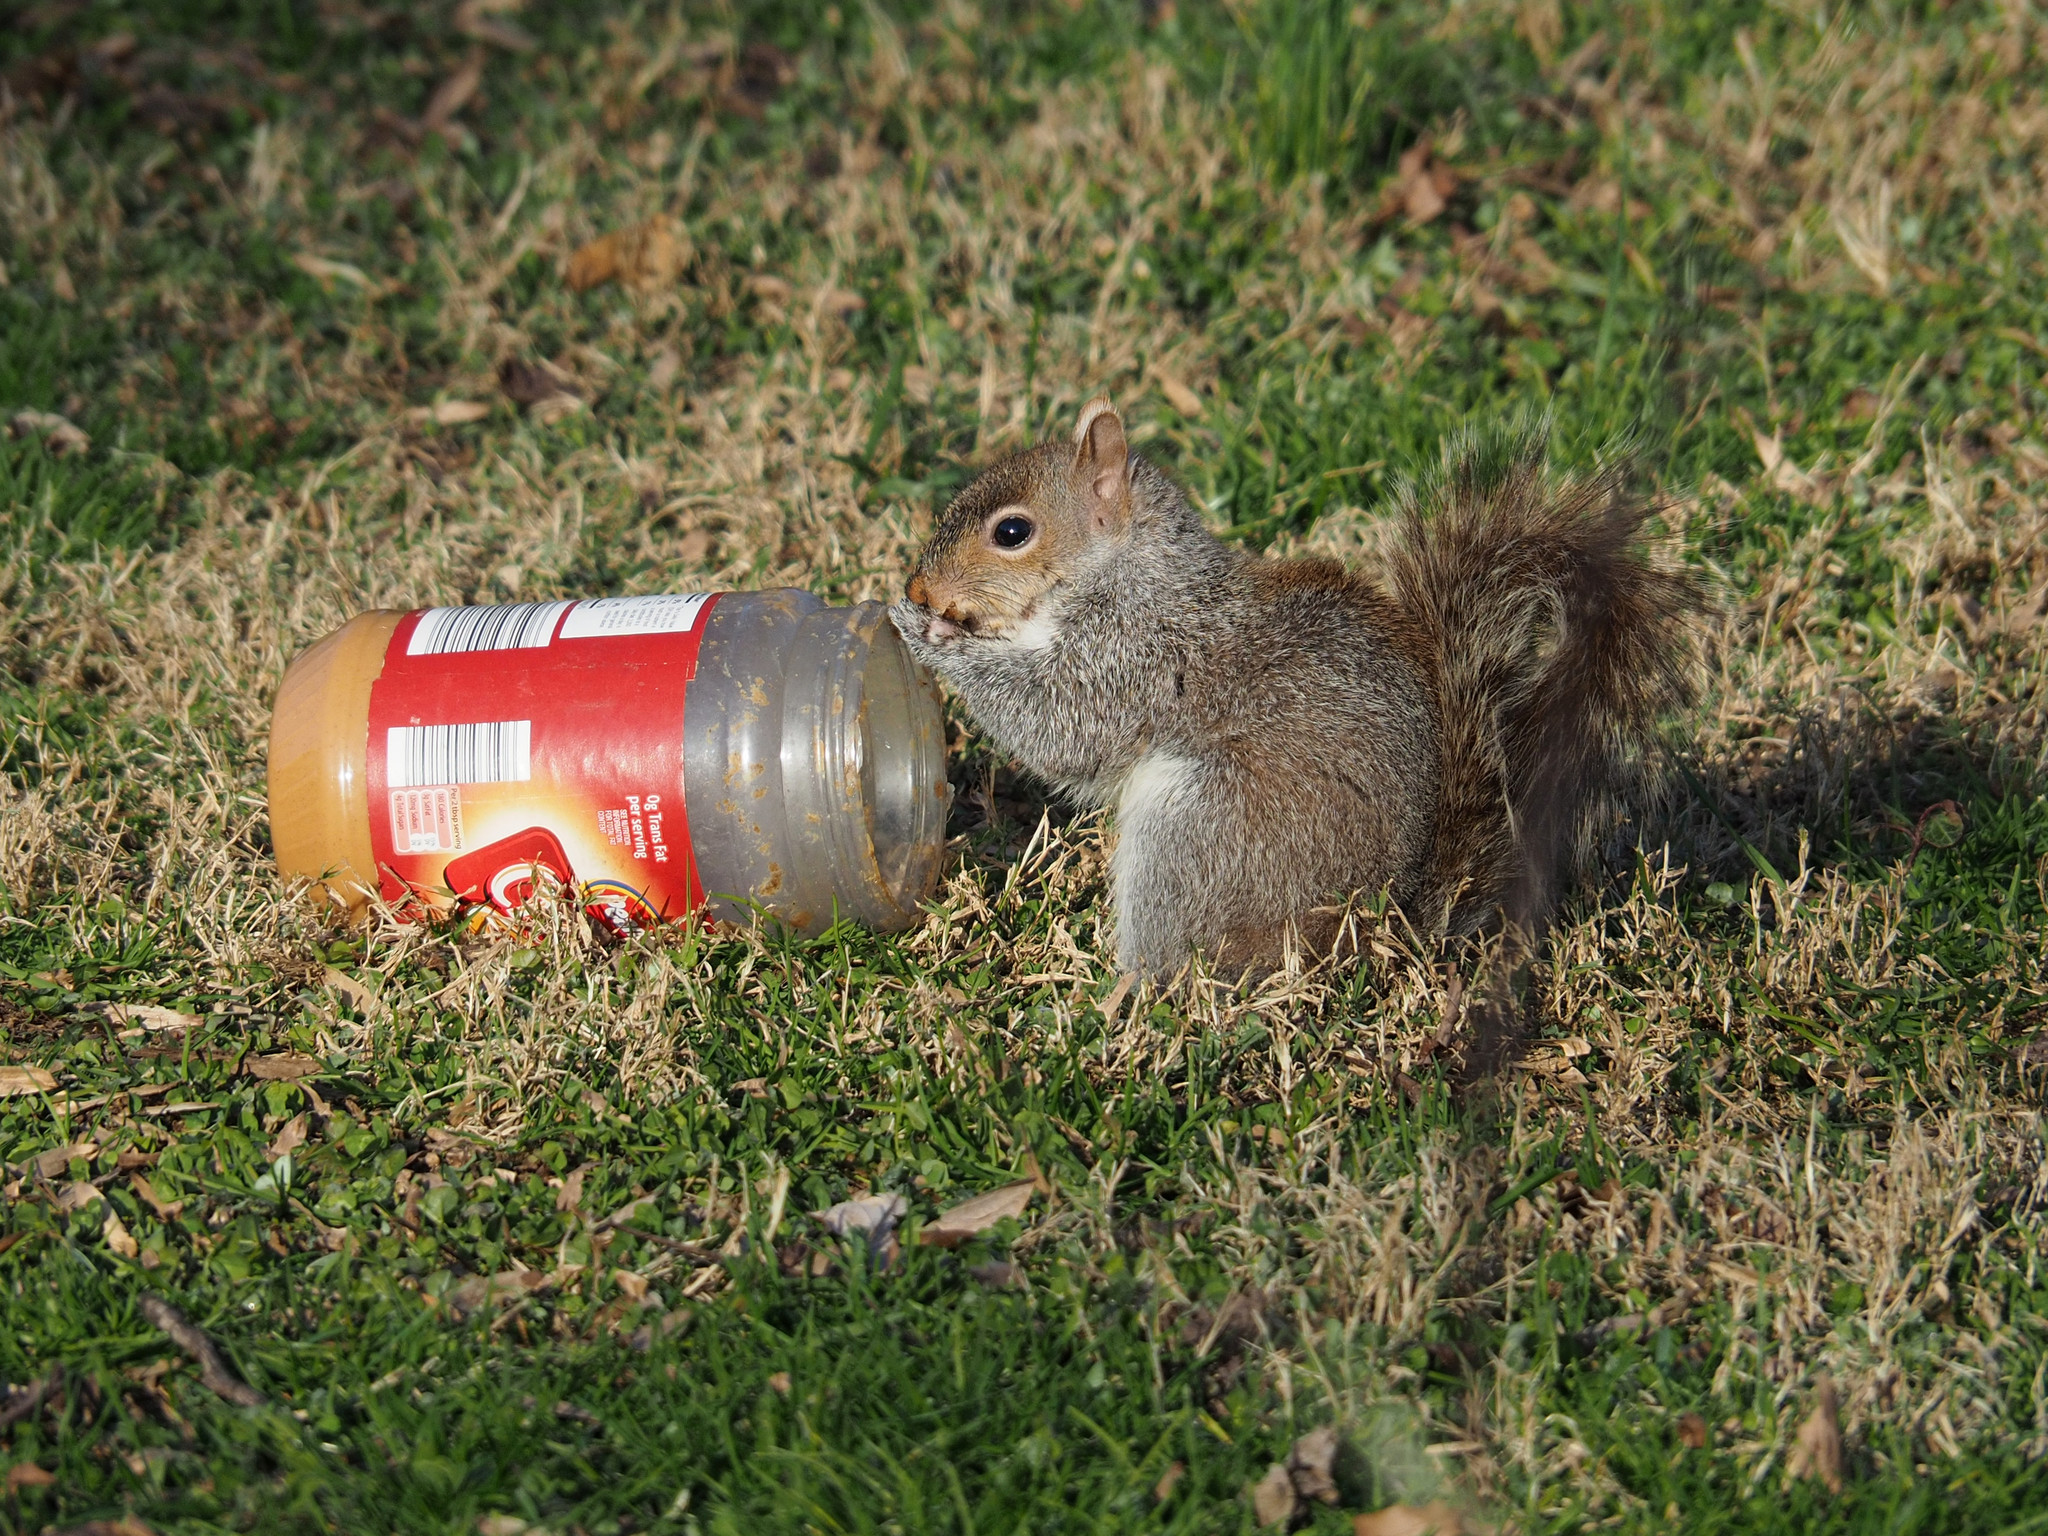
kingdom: Animalia
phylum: Chordata
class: Mammalia
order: Rodentia
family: Sciuridae
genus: Sciurus
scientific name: Sciurus carolinensis
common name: Eastern gray squirrel
